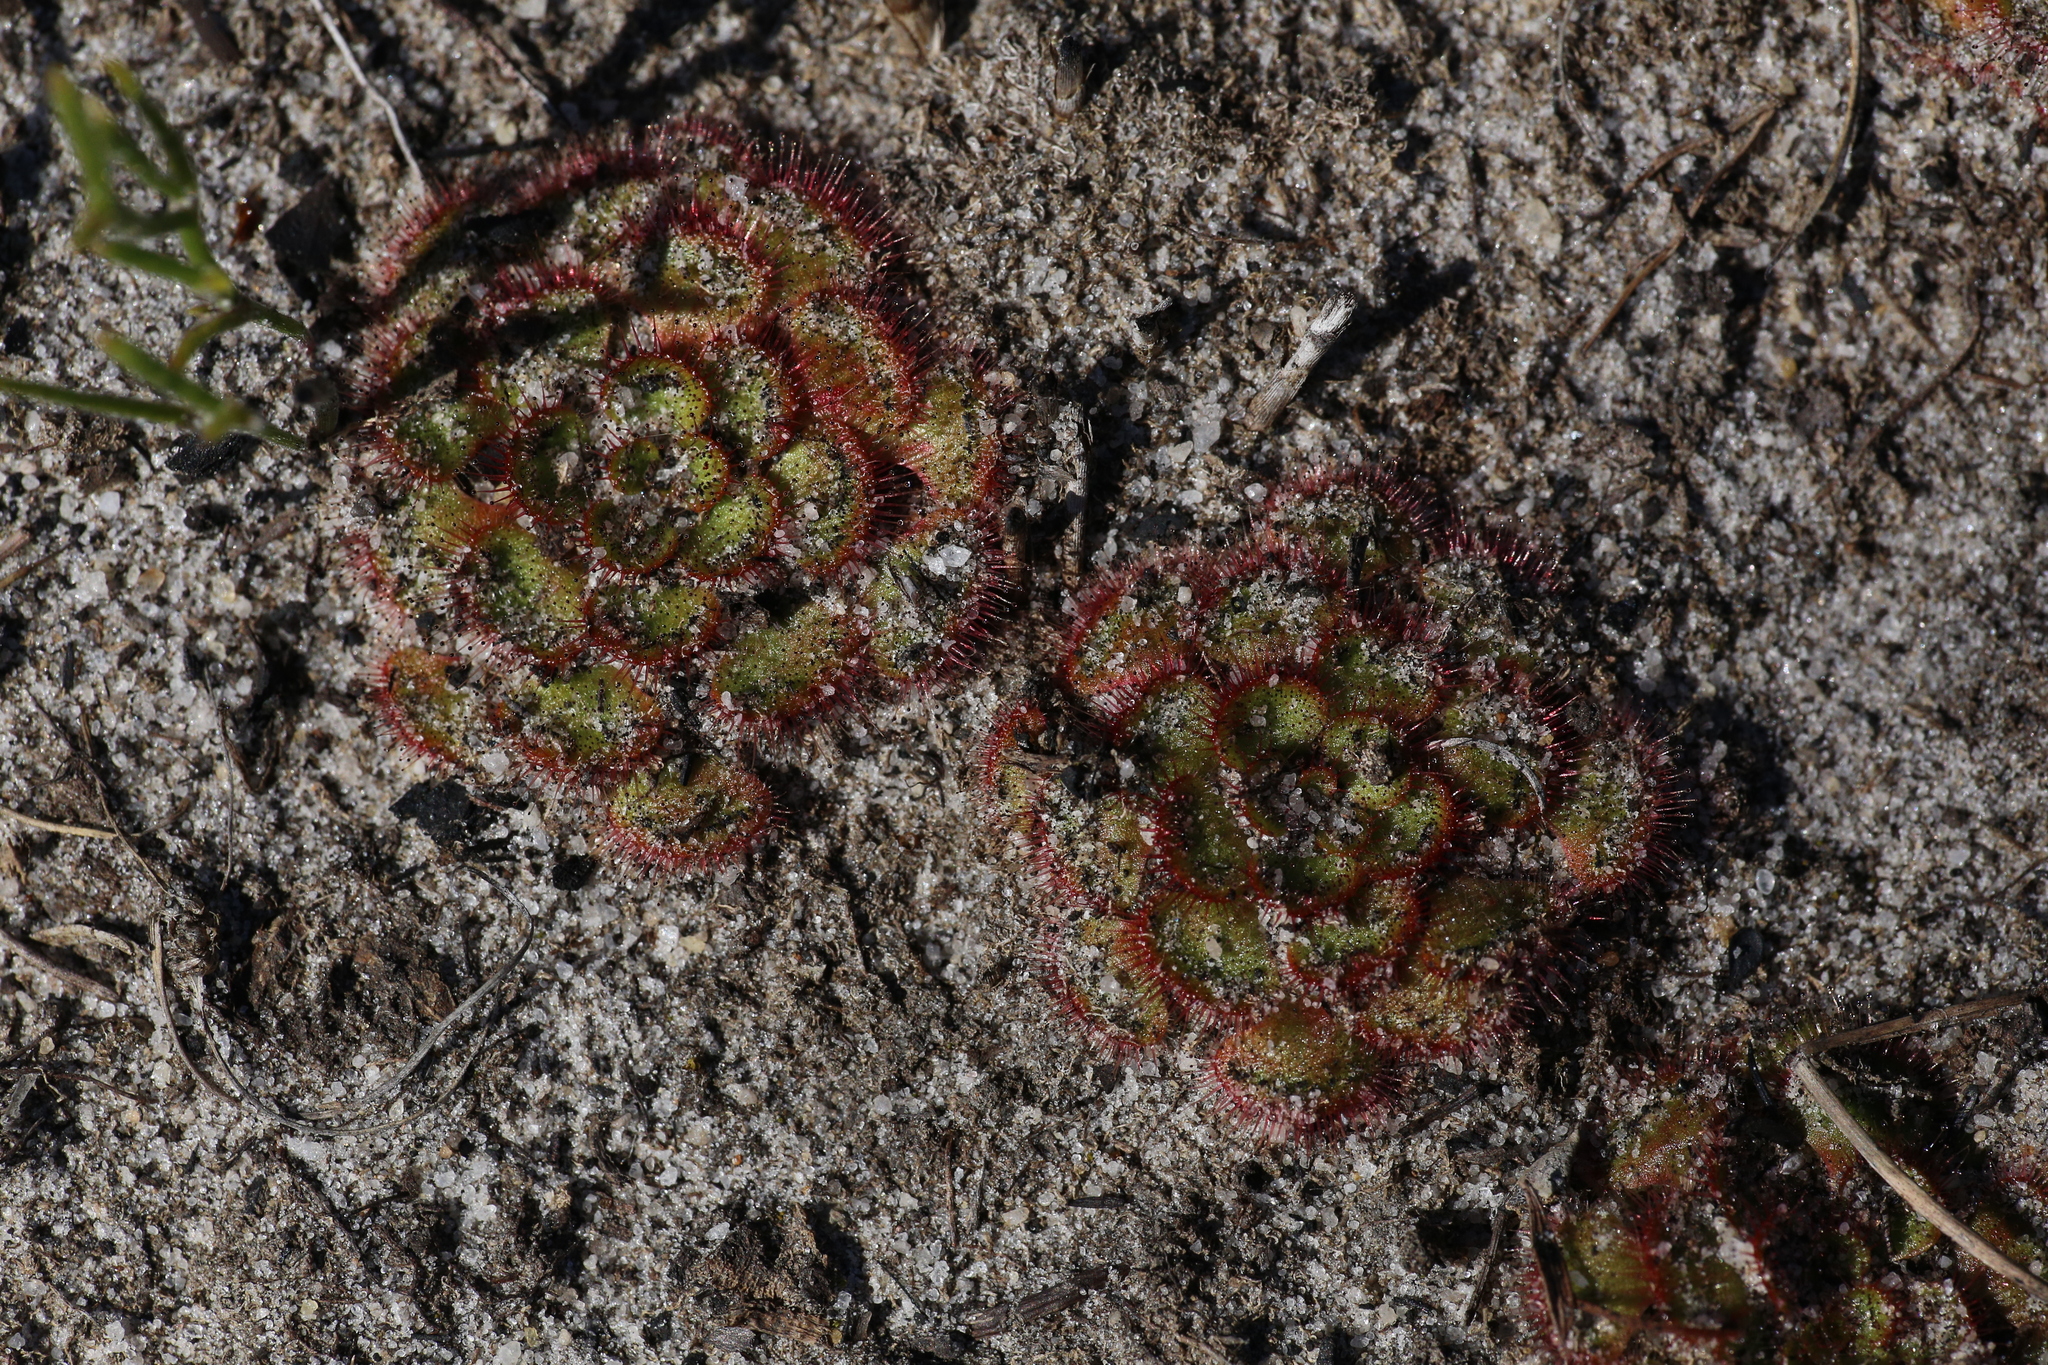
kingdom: Plantae
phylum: Tracheophyta
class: Magnoliopsida
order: Caryophyllales
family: Droseraceae
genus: Drosera
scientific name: Drosera zonaria
